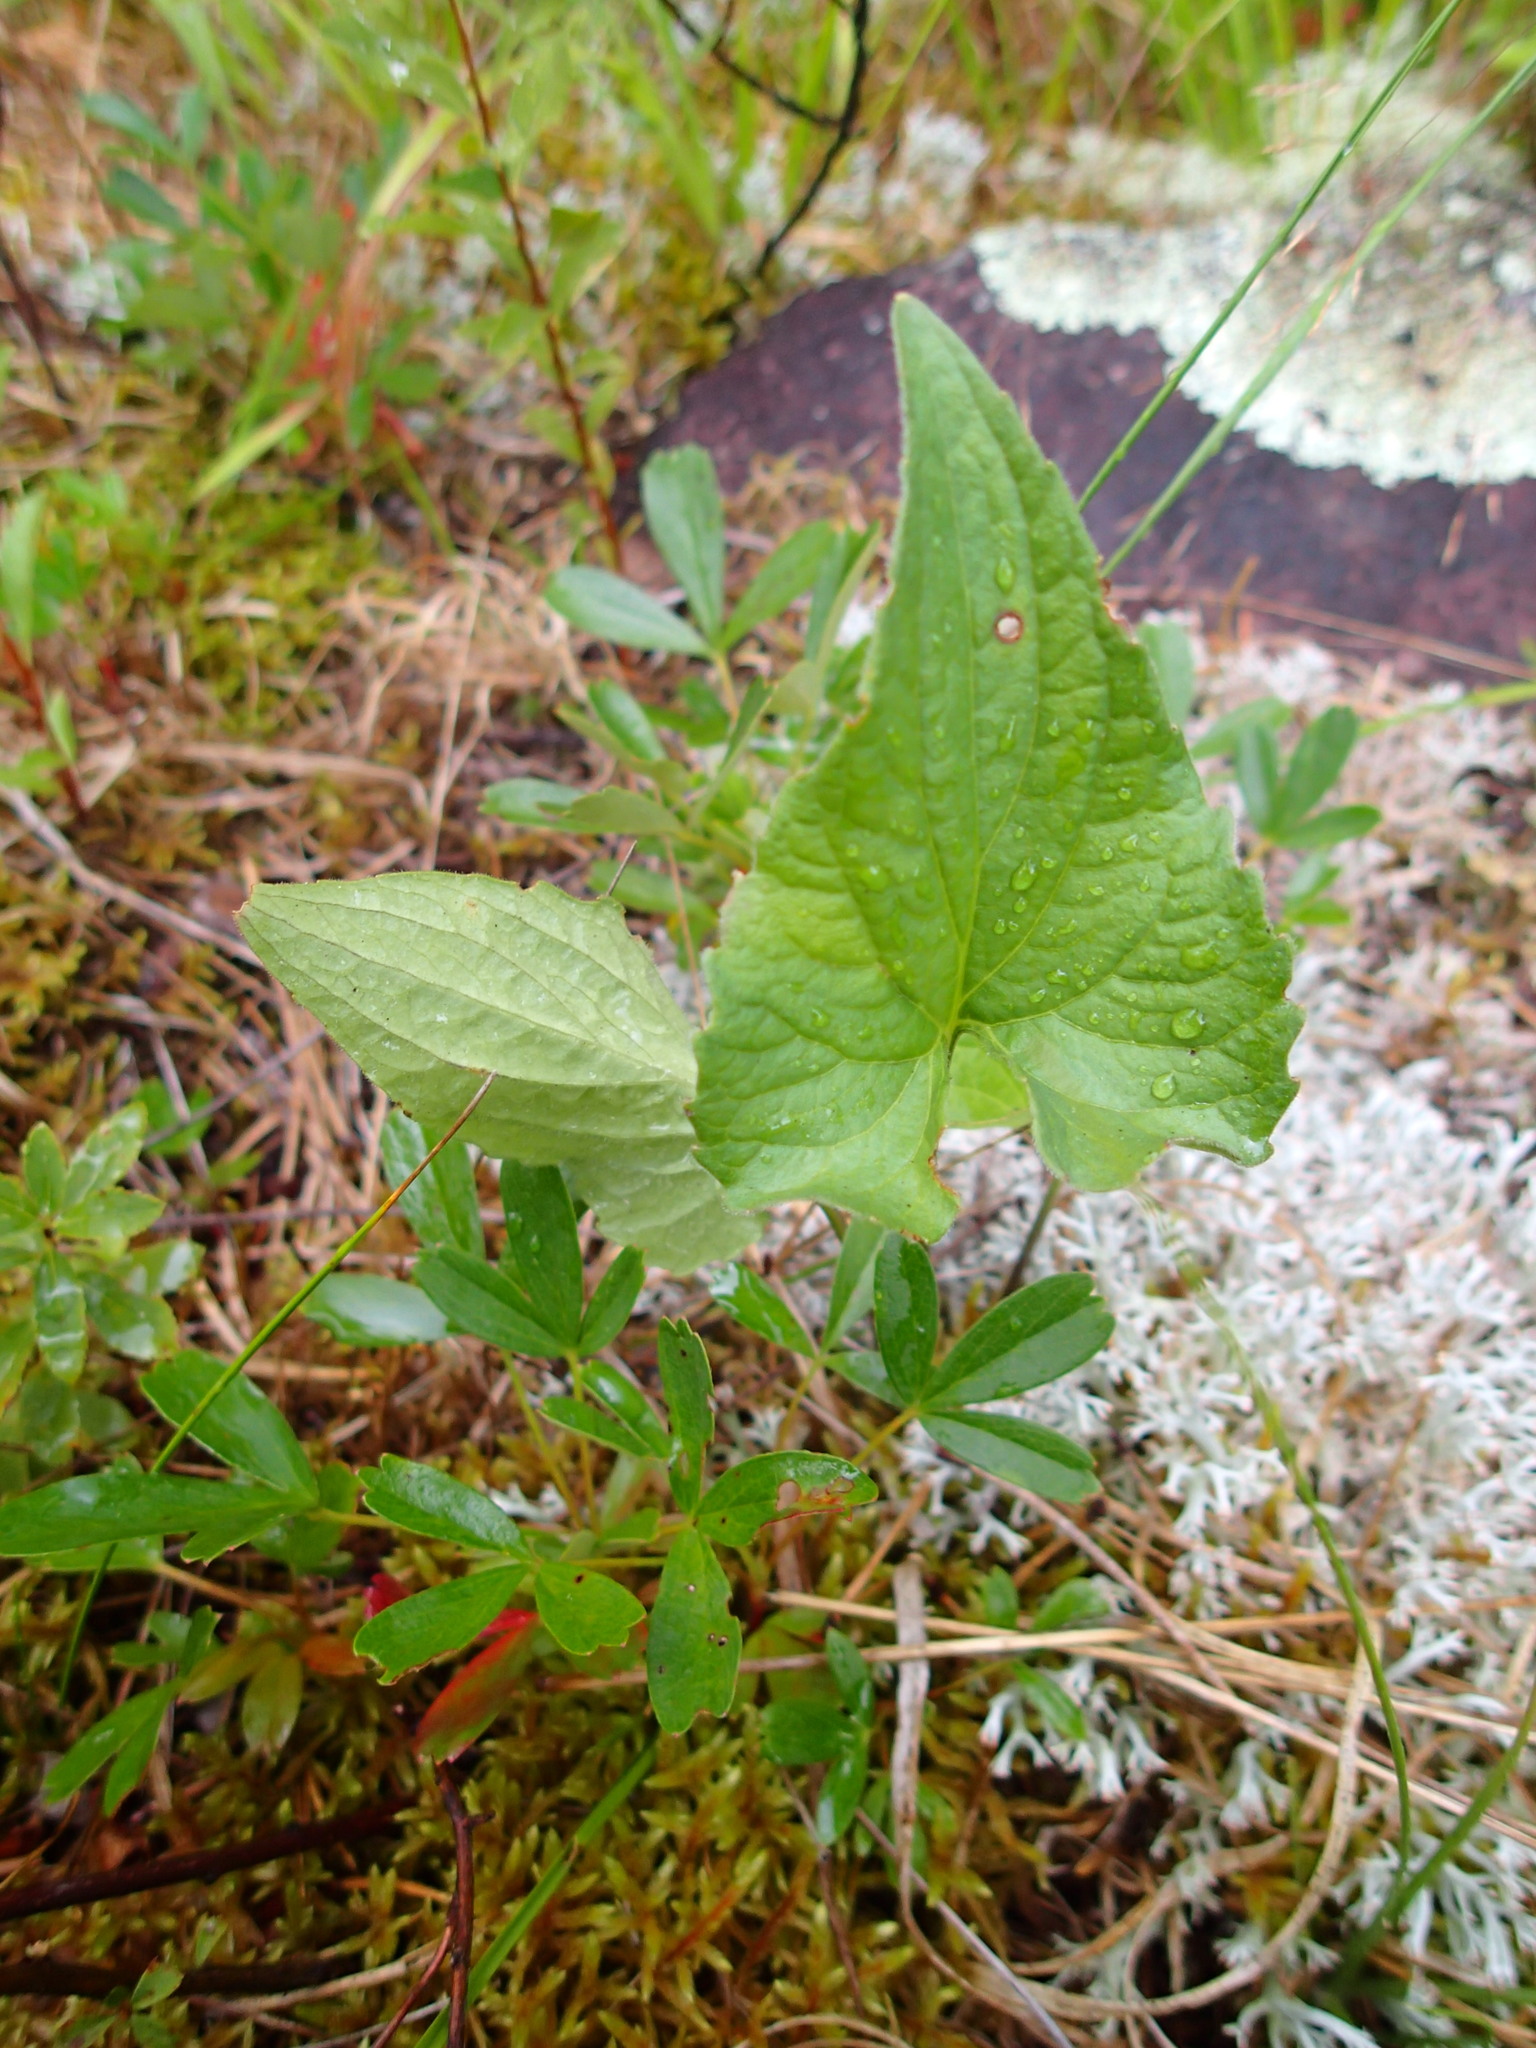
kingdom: Plantae
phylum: Tracheophyta
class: Magnoliopsida
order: Malpighiales
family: Violaceae
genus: Viola
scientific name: Viola novae-angliae
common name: New england blue violet
